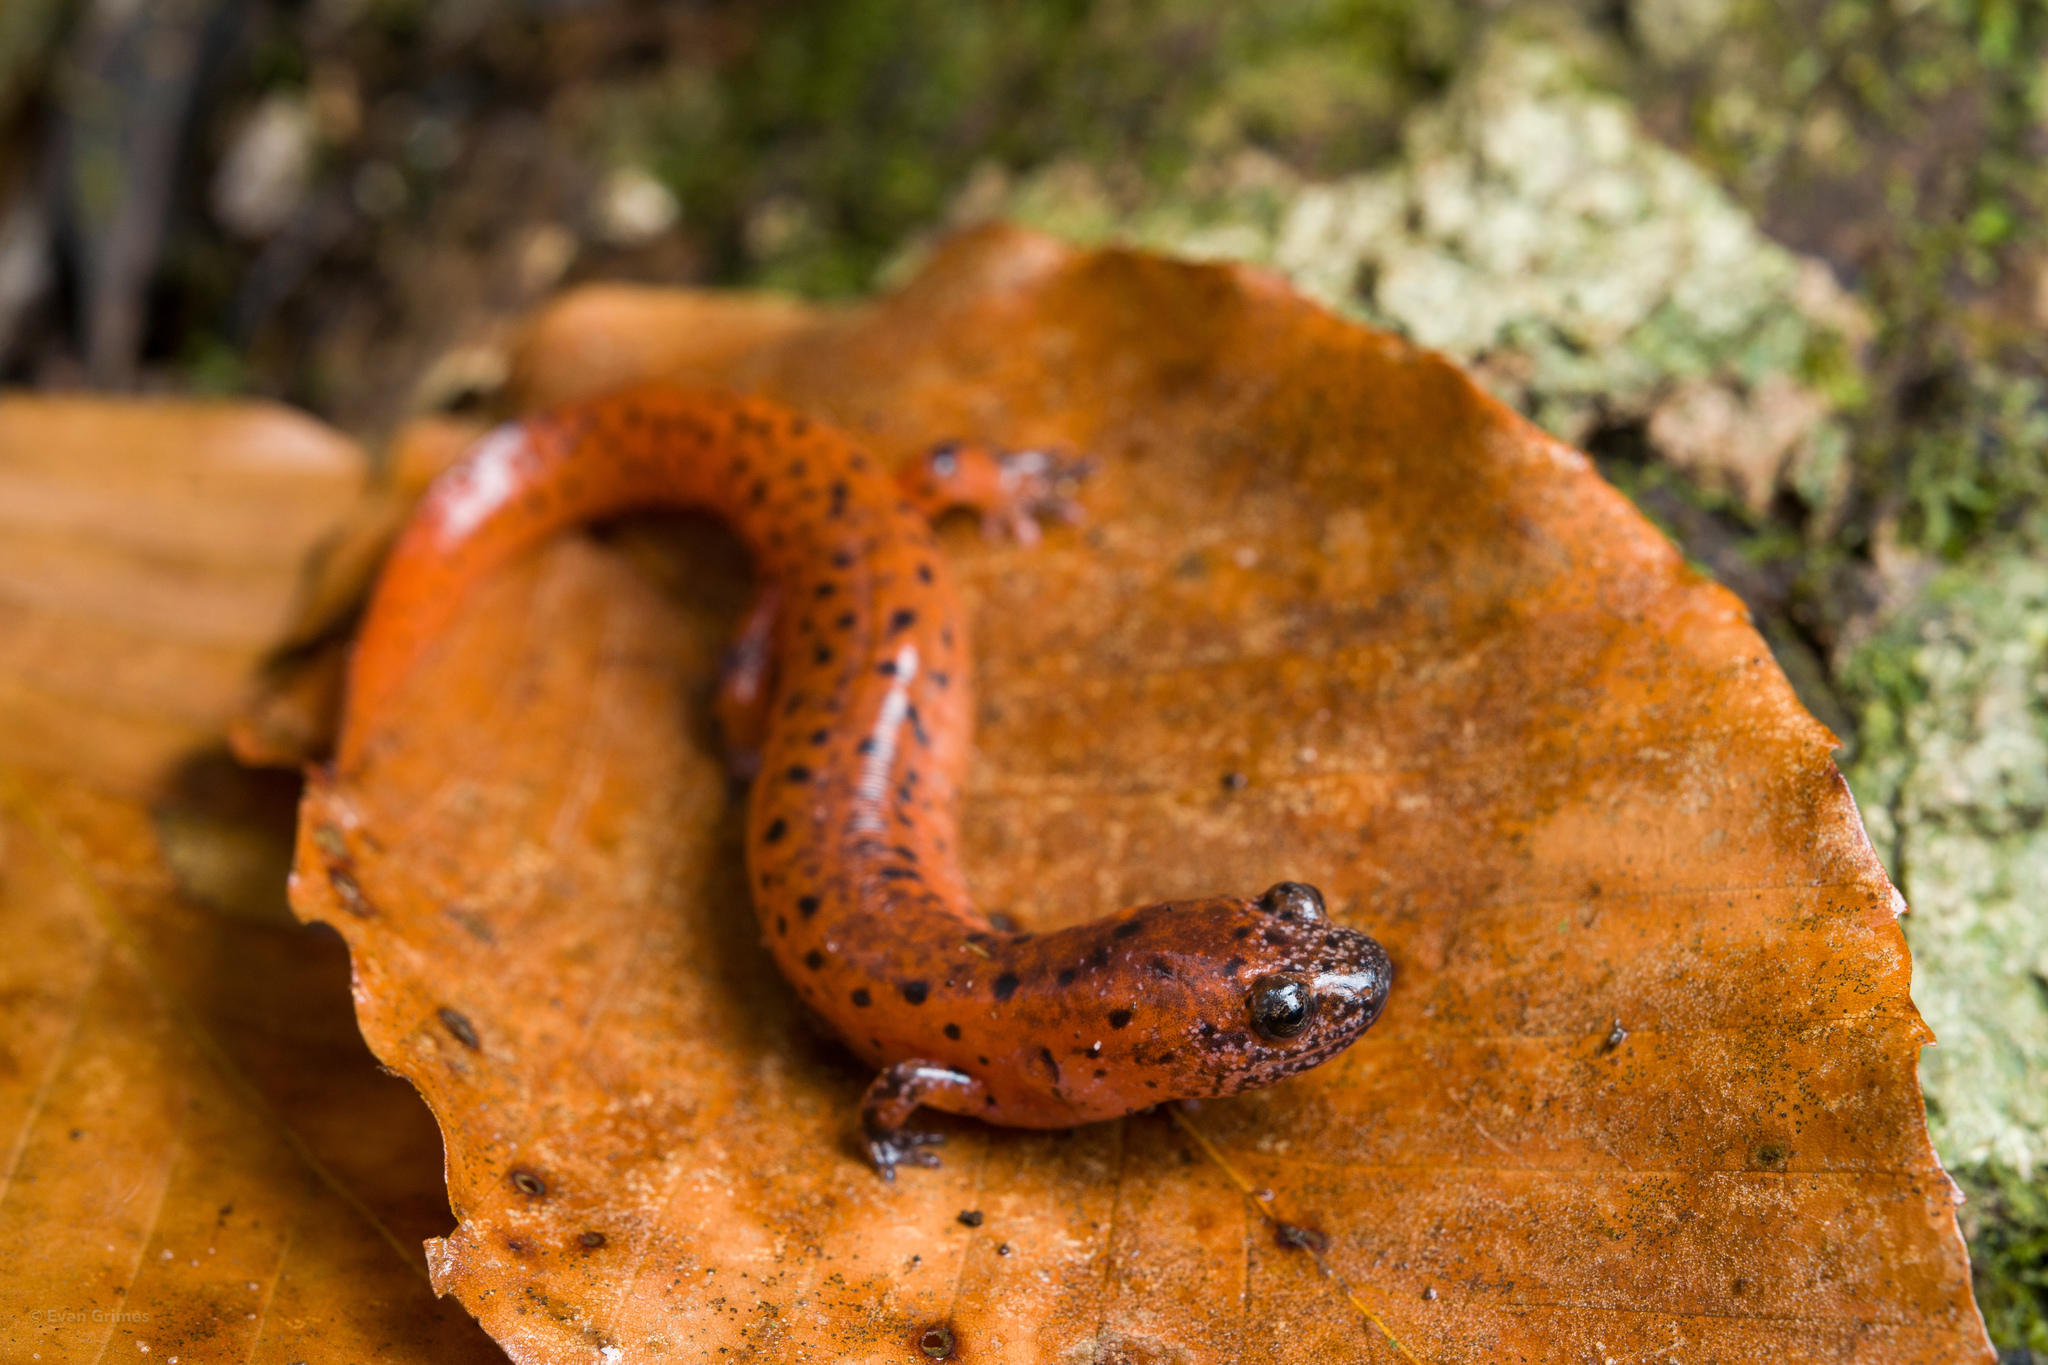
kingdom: Animalia
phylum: Chordata
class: Amphibia
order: Caudata
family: Plethodontidae
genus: Pseudotriton
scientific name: Pseudotriton ruber
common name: Red salamander
